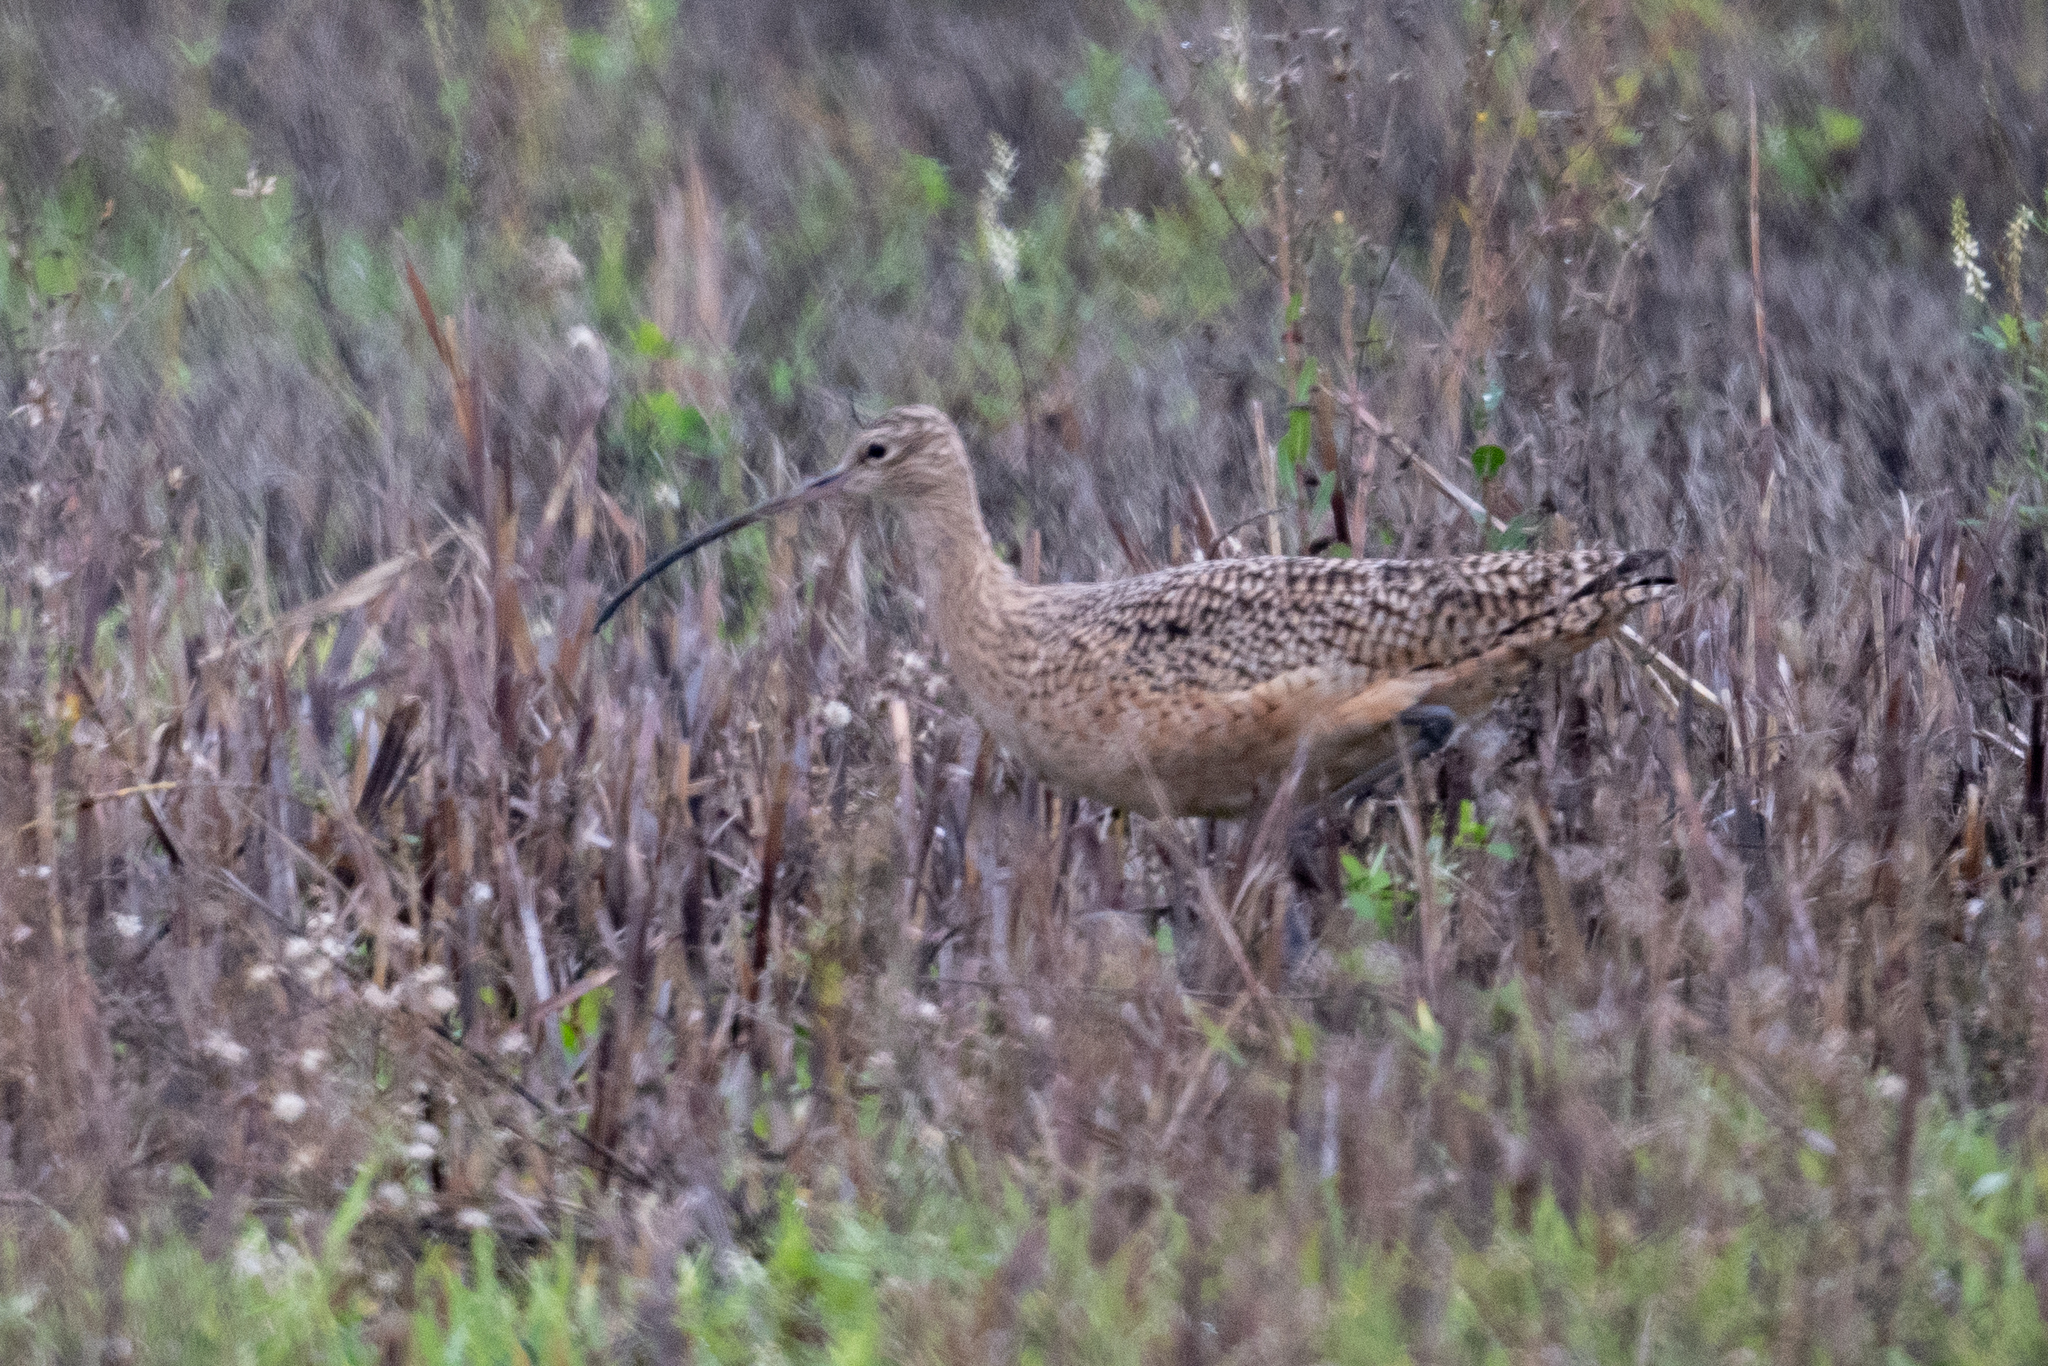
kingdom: Animalia
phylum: Chordata
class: Aves
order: Charadriiformes
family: Scolopacidae
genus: Numenius
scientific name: Numenius americanus
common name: Long-billed curlew
